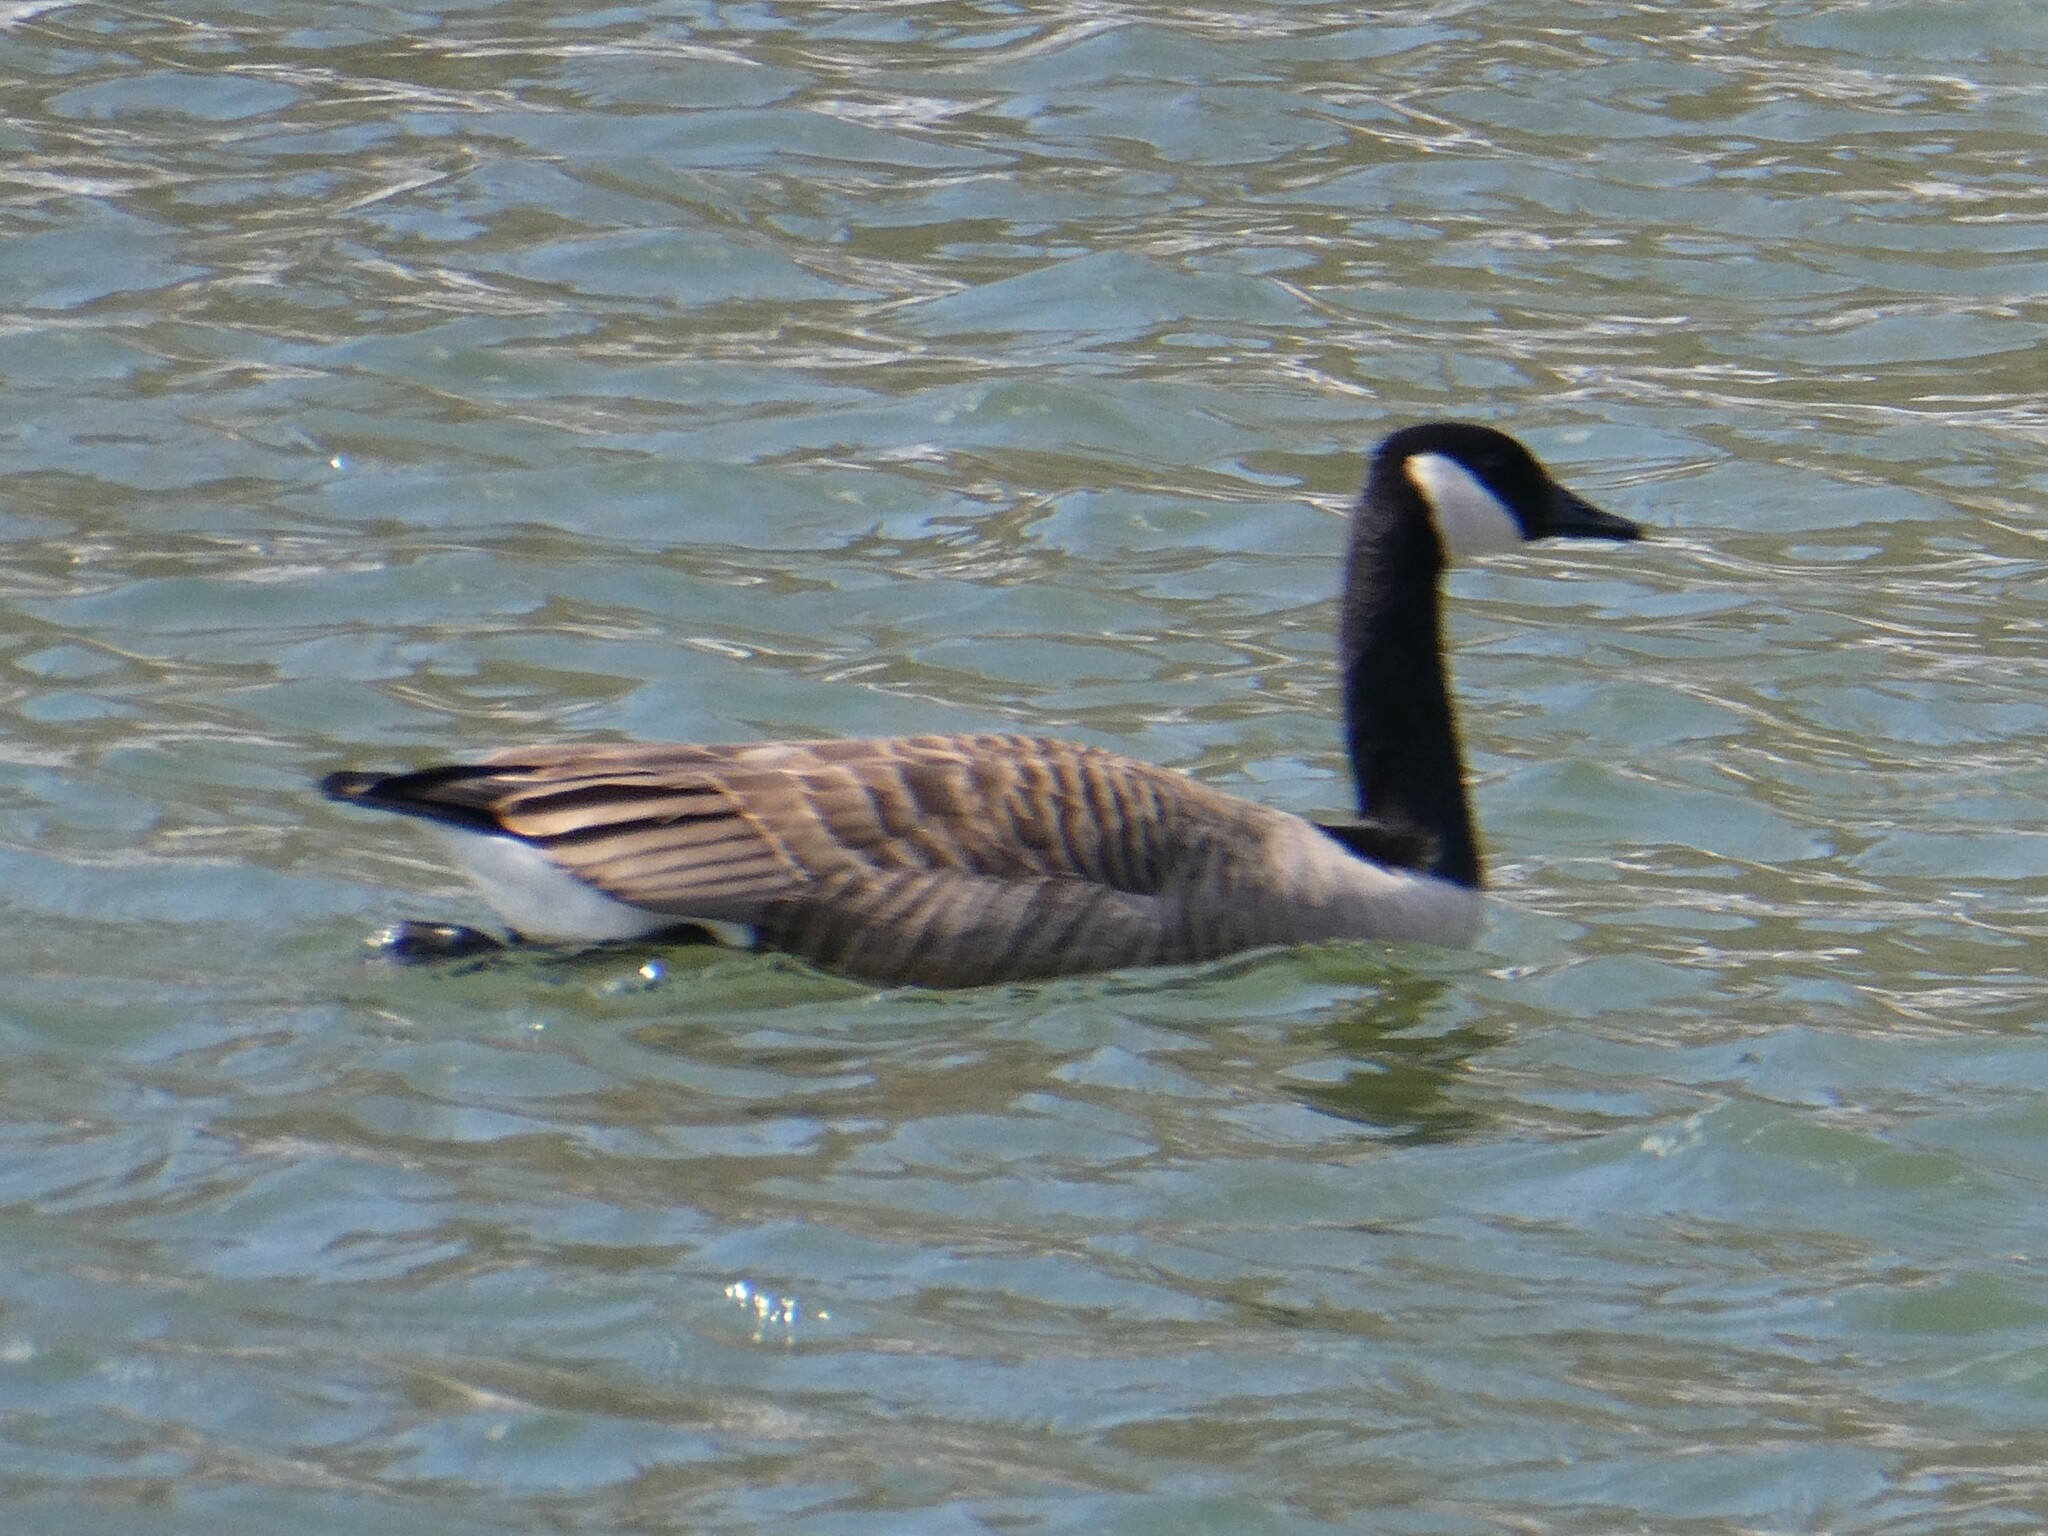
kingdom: Animalia
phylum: Chordata
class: Aves
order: Anseriformes
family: Anatidae
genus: Branta
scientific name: Branta canadensis
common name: Canada goose
